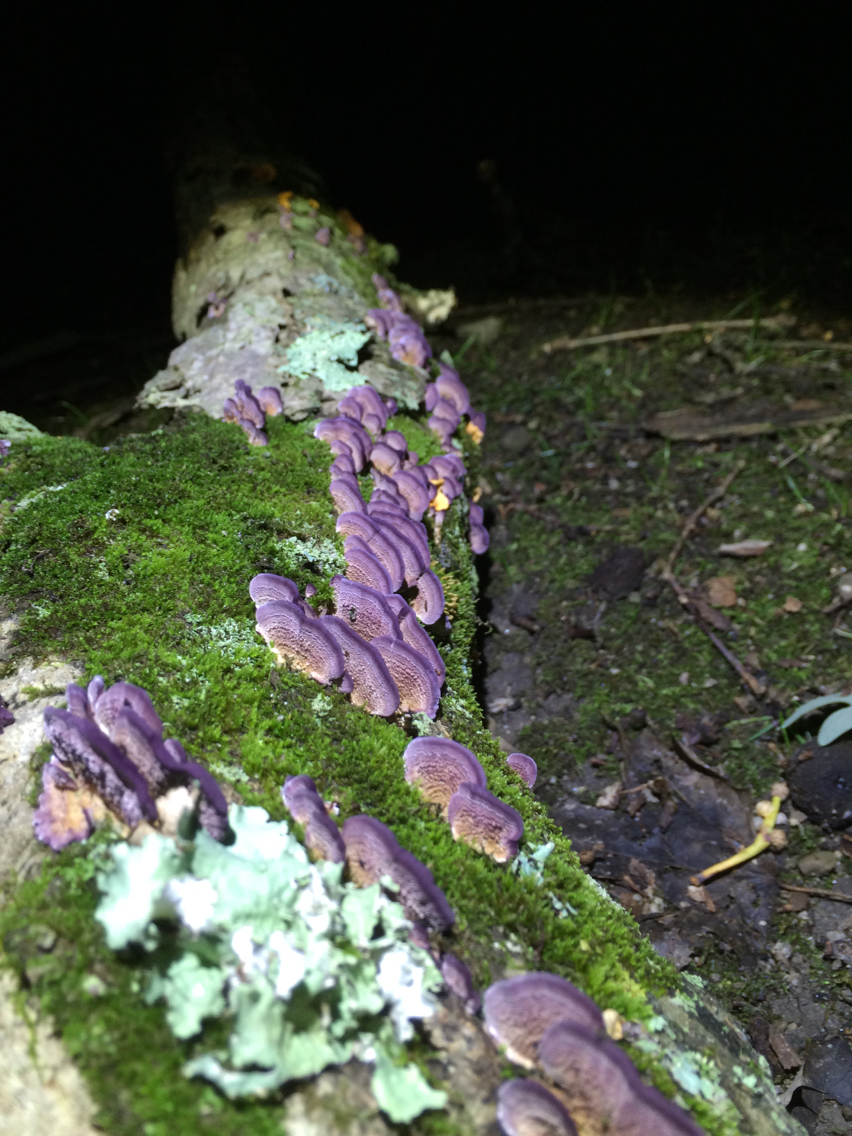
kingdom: Fungi
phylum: Basidiomycota
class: Agaricomycetes
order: Hymenochaetales
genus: Trichaptum
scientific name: Trichaptum biforme
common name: Violet-toothed polypore
